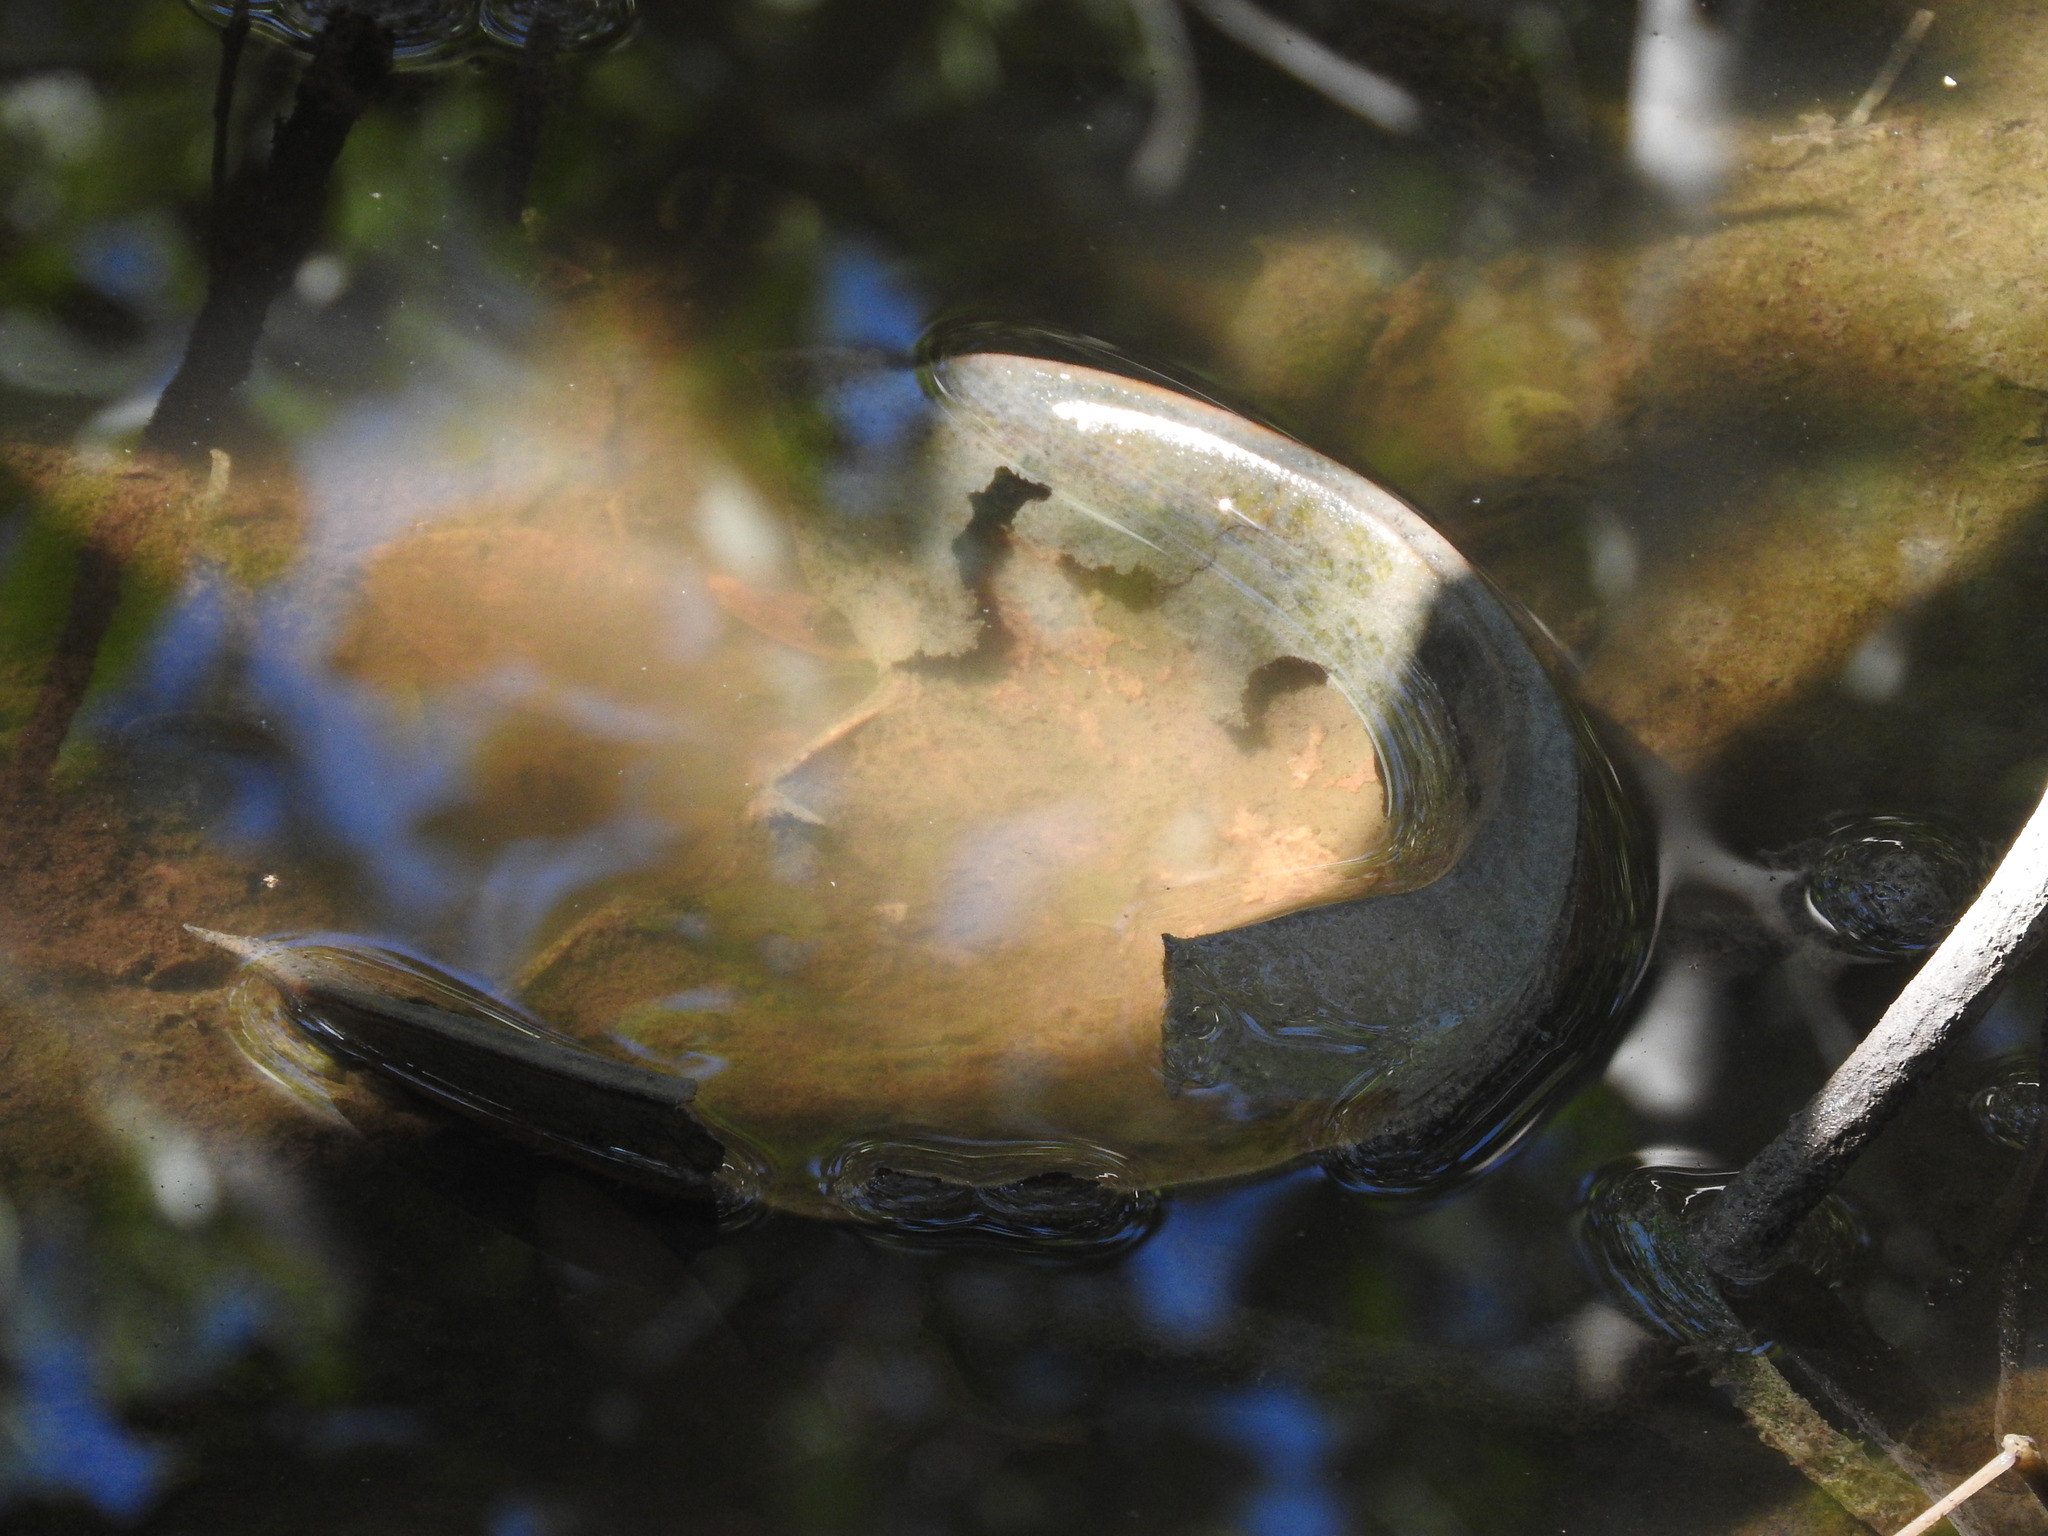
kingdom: Animalia
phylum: Arthropoda
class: Merostomata
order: Xiphosurida
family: Limulidae
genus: Limulus
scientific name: Limulus polyphemus
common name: Horseshoe crab
